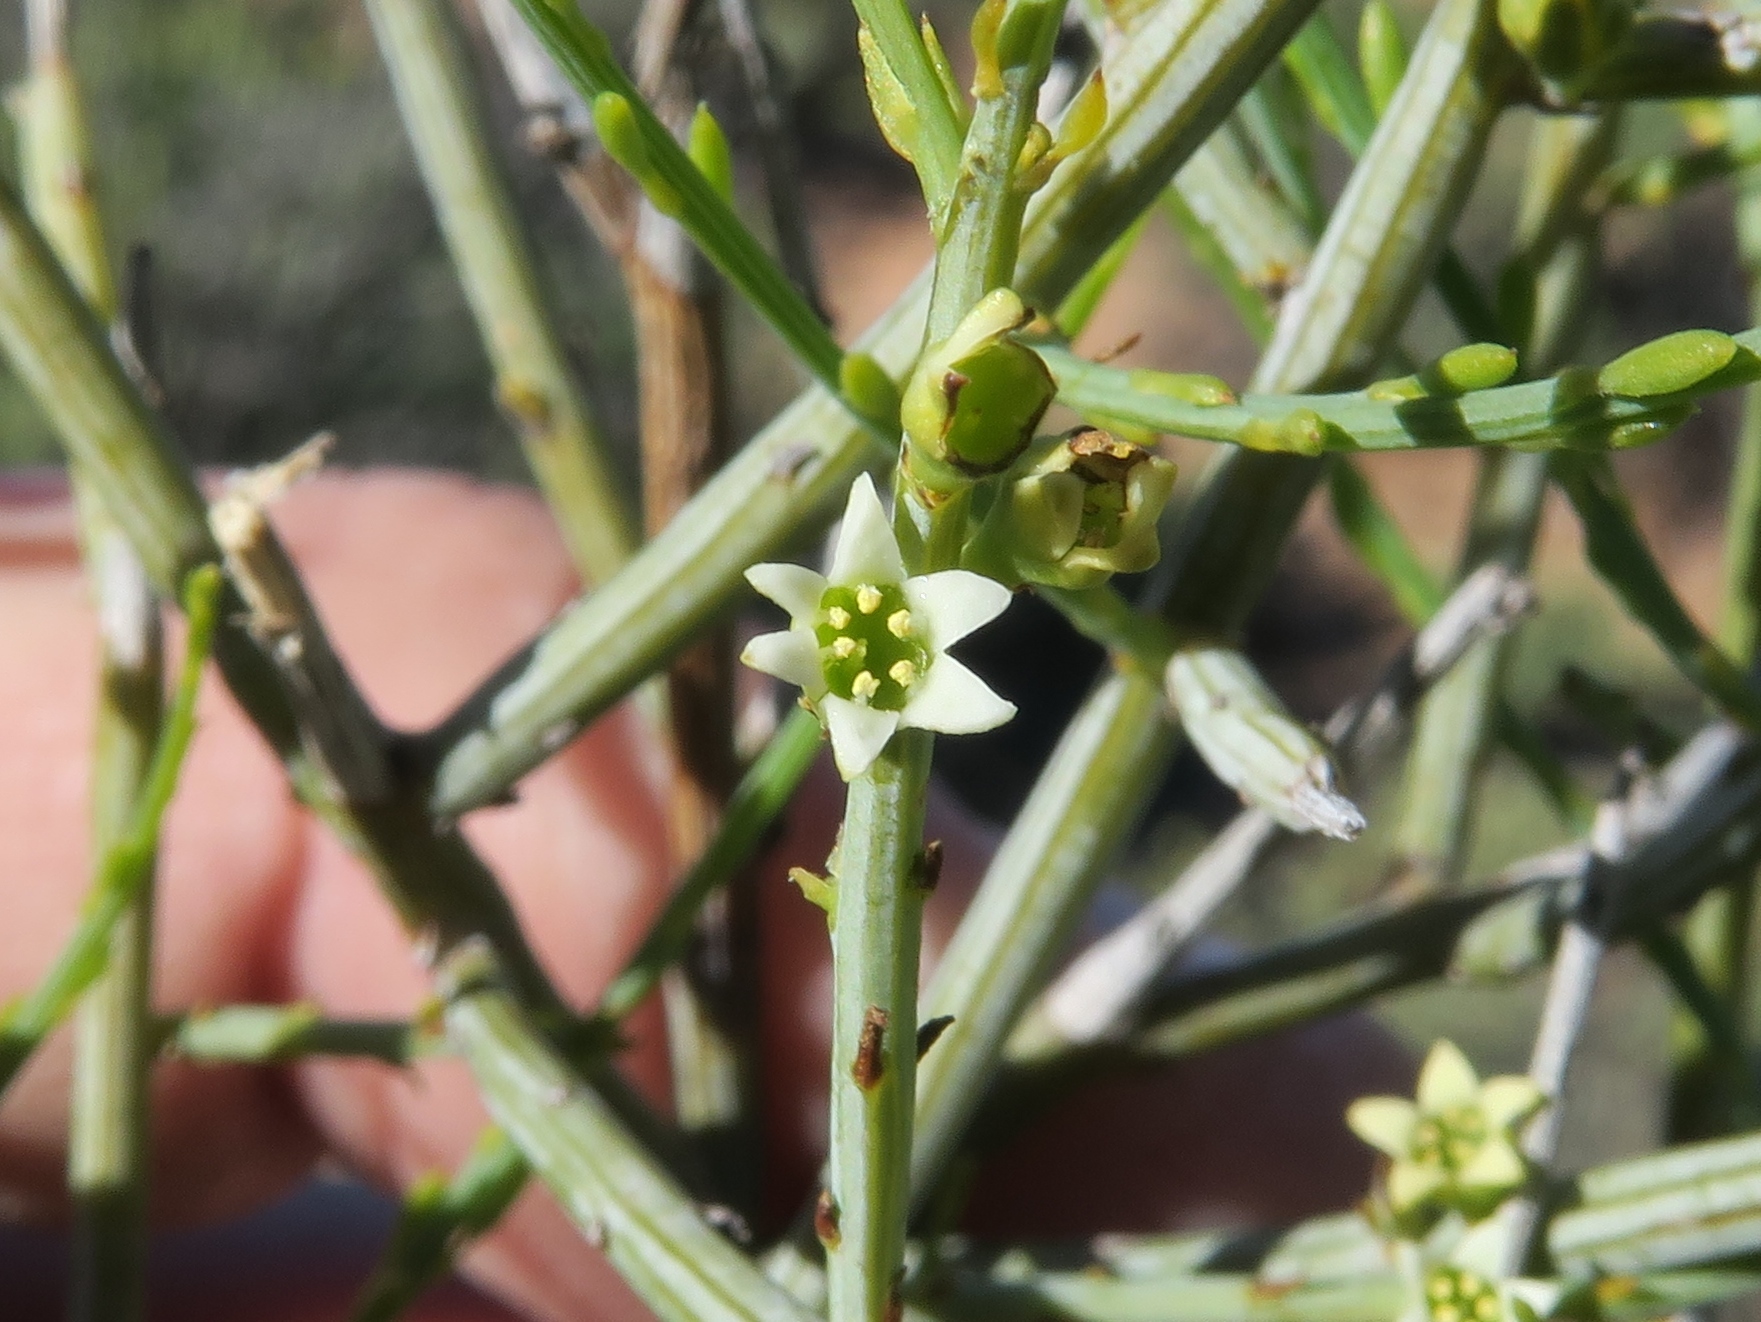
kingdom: Plantae
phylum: Tracheophyta
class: Magnoliopsida
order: Santalales
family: Thesiaceae
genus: Lacomucinaea
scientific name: Lacomucinaea lineata
